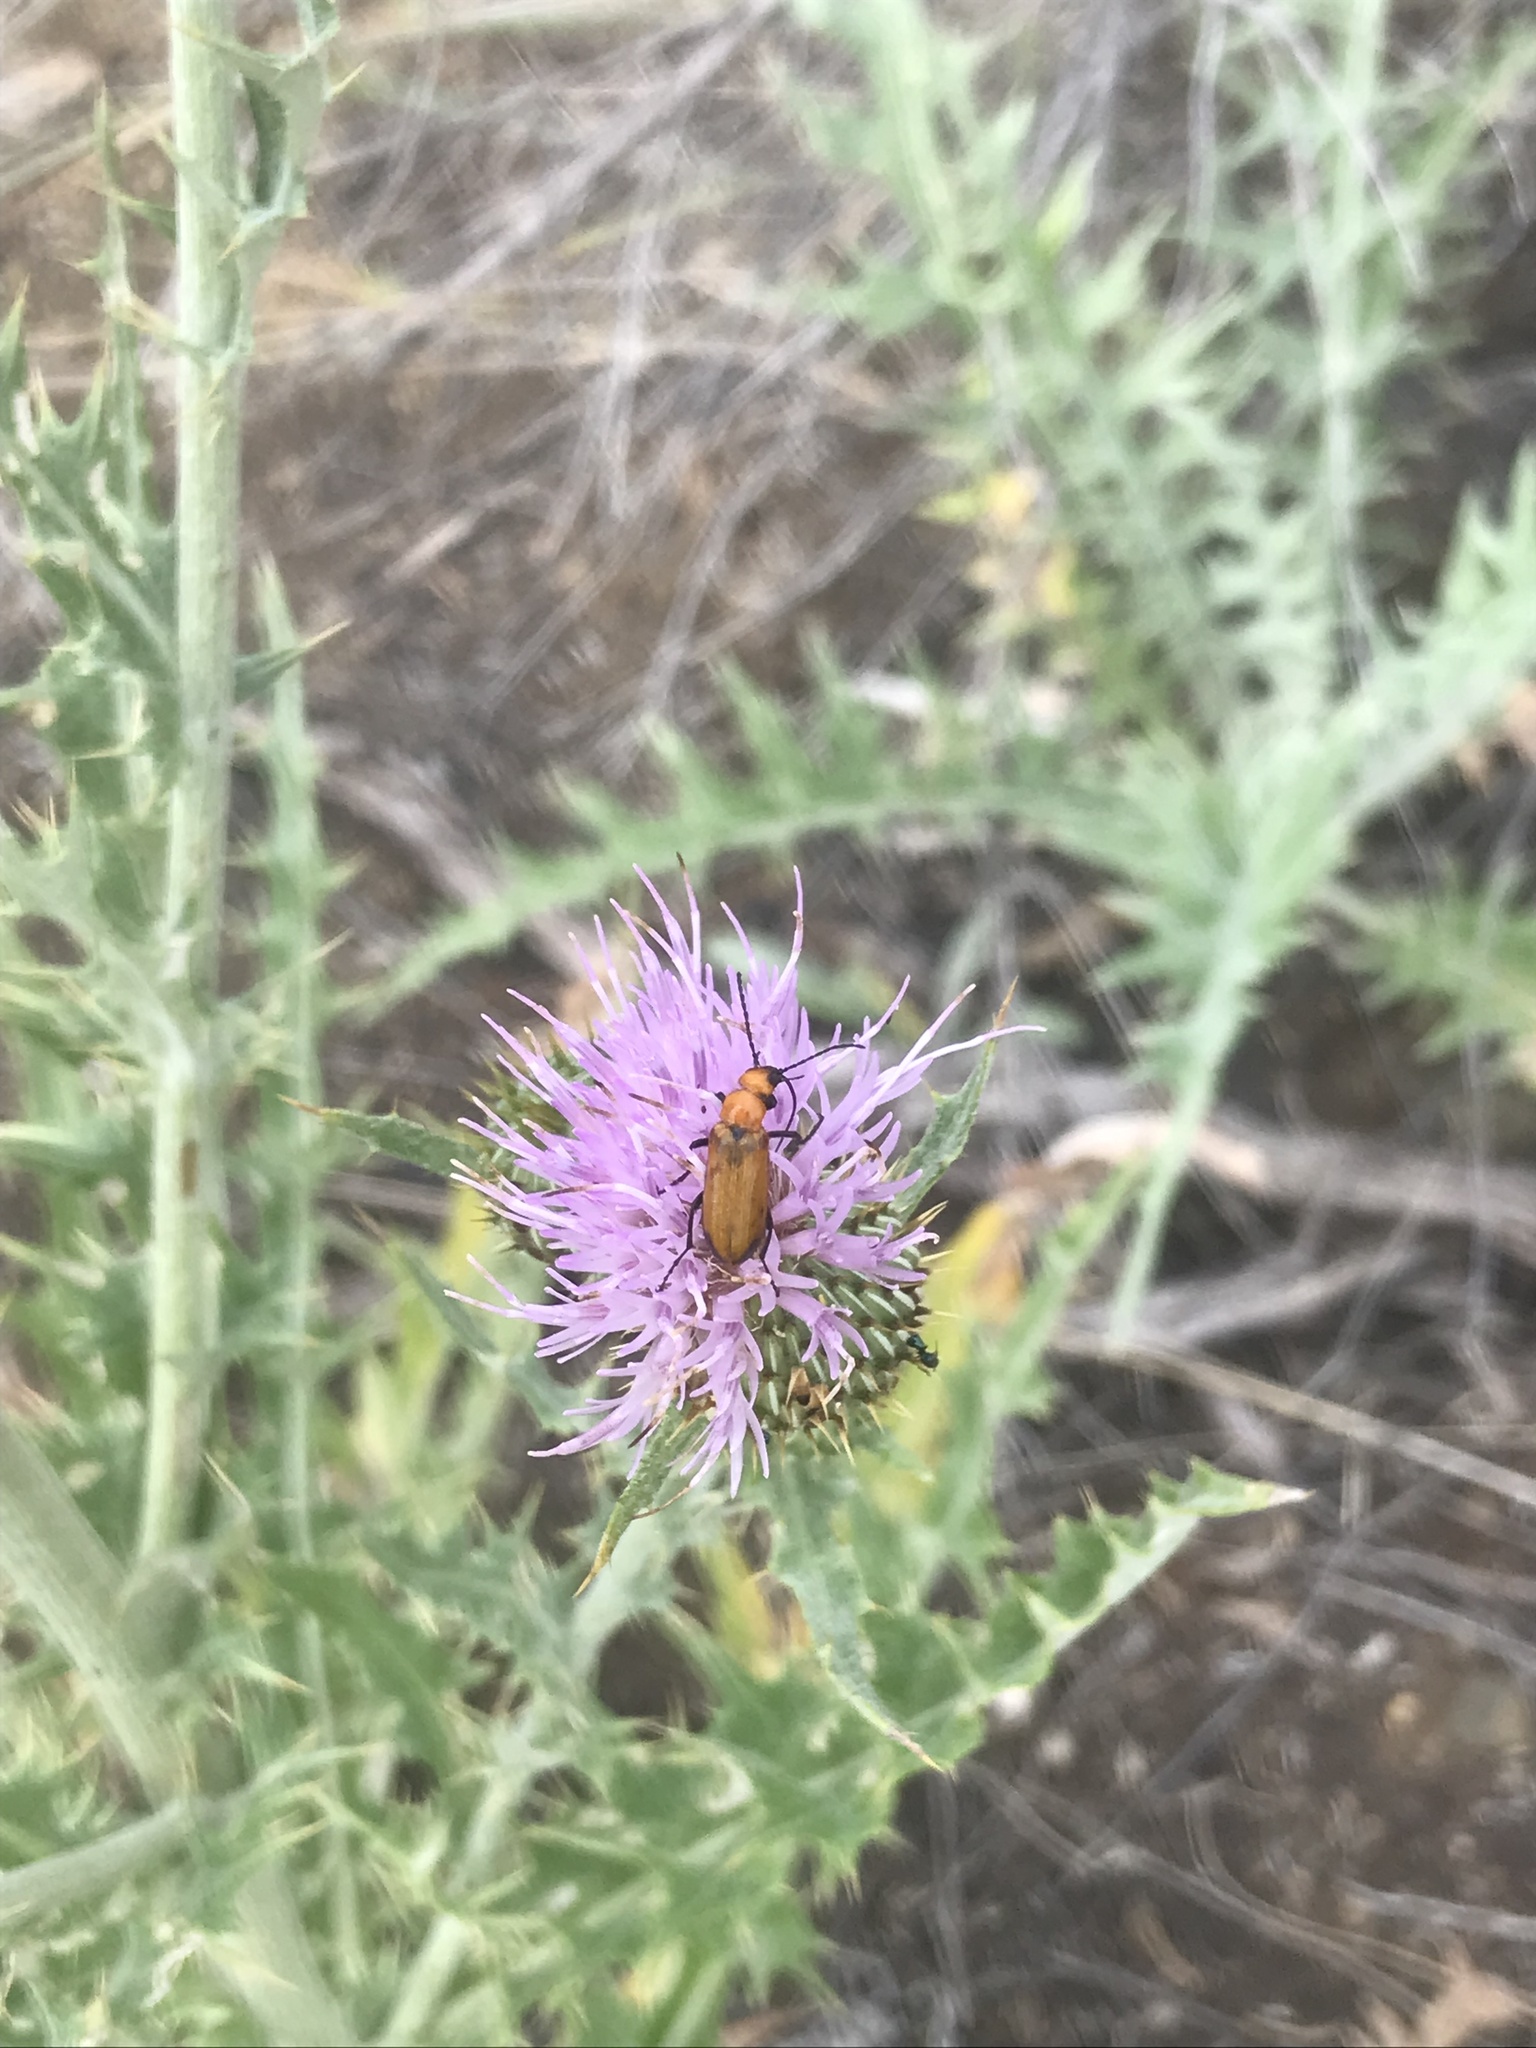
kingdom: Animalia
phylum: Arthropoda
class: Insecta
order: Coleoptera
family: Meloidae
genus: Nemognatha
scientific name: Nemognatha lutea
